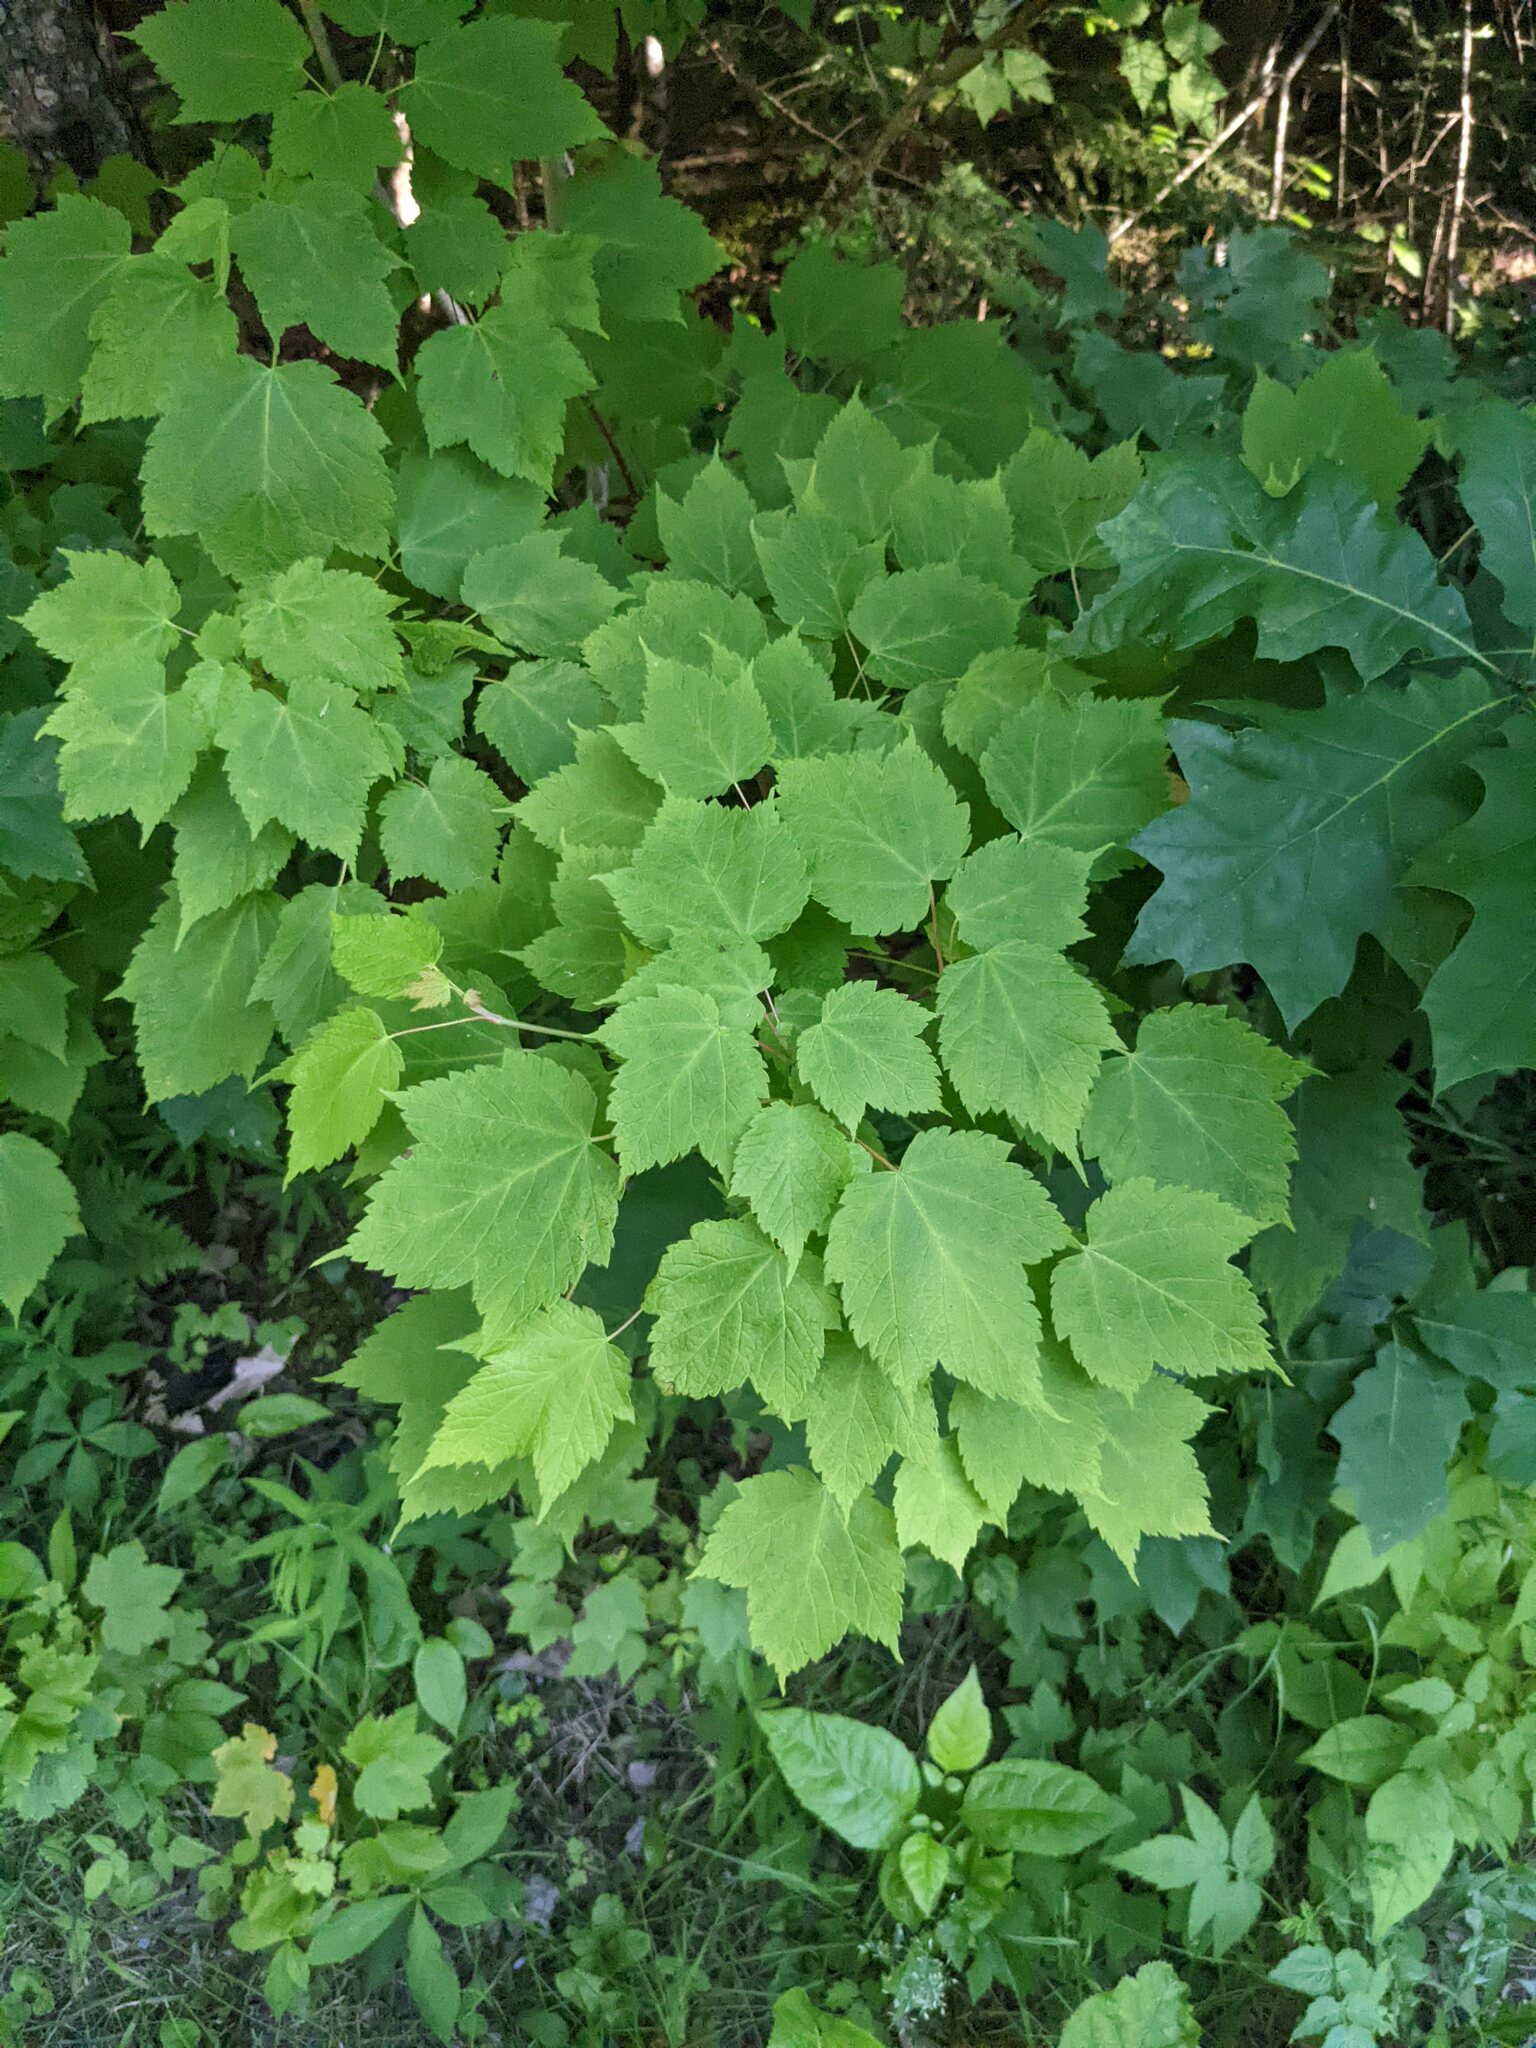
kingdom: Plantae
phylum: Tracheophyta
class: Magnoliopsida
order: Sapindales
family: Sapindaceae
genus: Acer
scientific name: Acer spicatum
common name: Mountain maple
